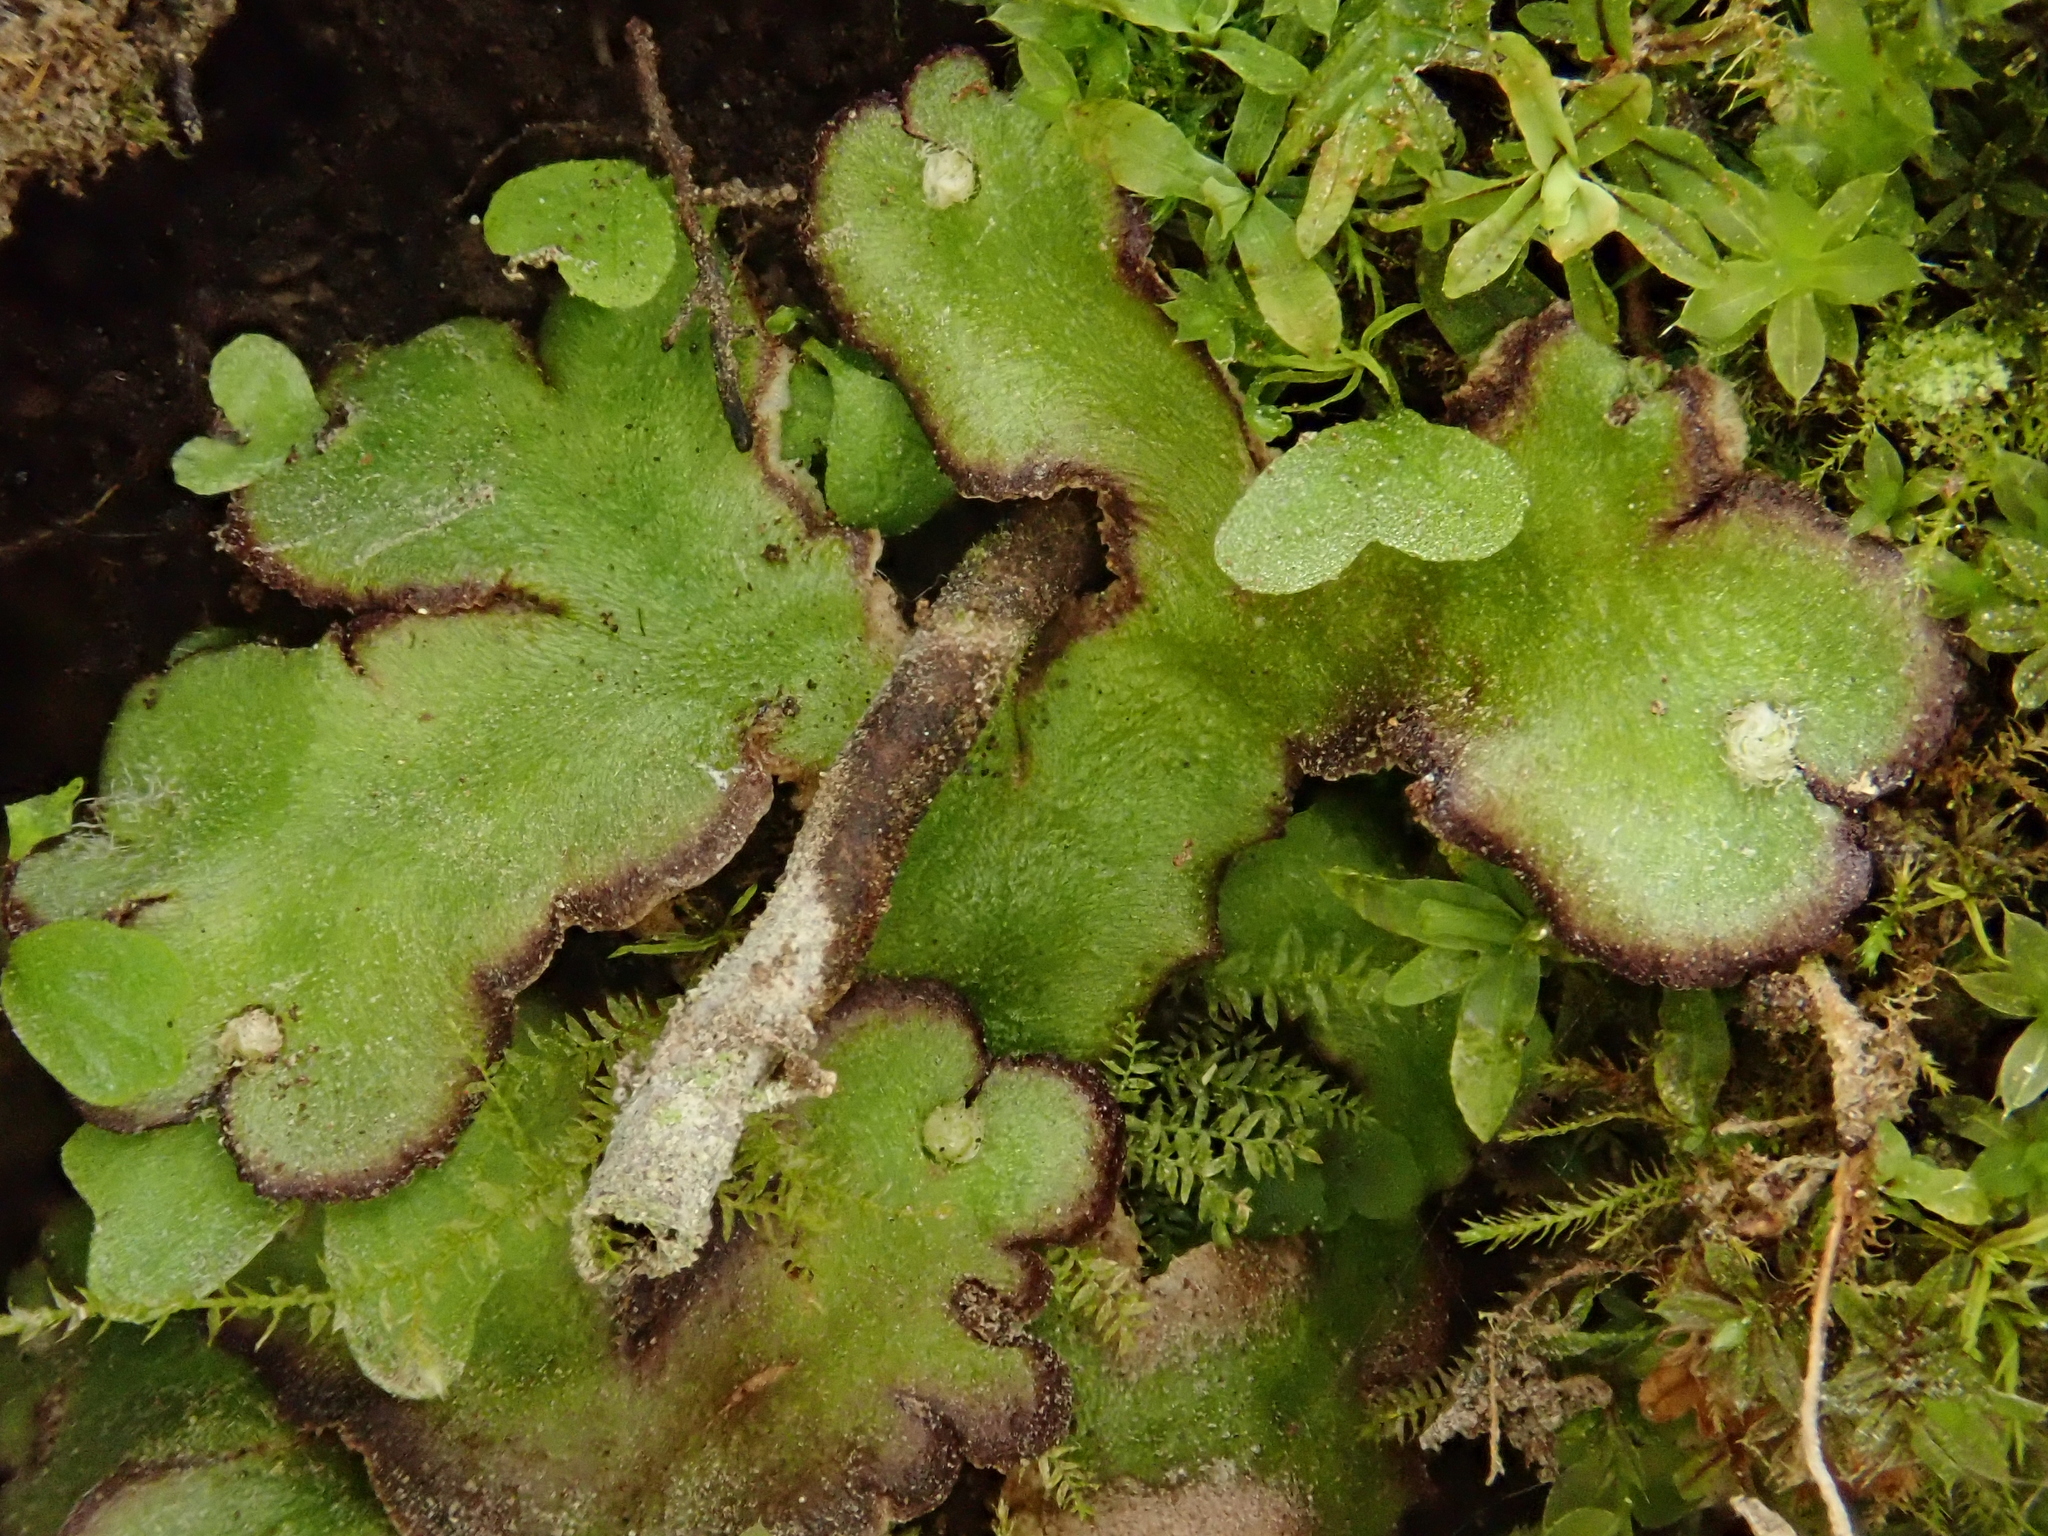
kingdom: Plantae
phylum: Marchantiophyta
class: Marchantiopsida
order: Marchantiales
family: Aytoniaceae
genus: Reboulia
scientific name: Reboulia hemisphaerica
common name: Purple-margined liverwort
